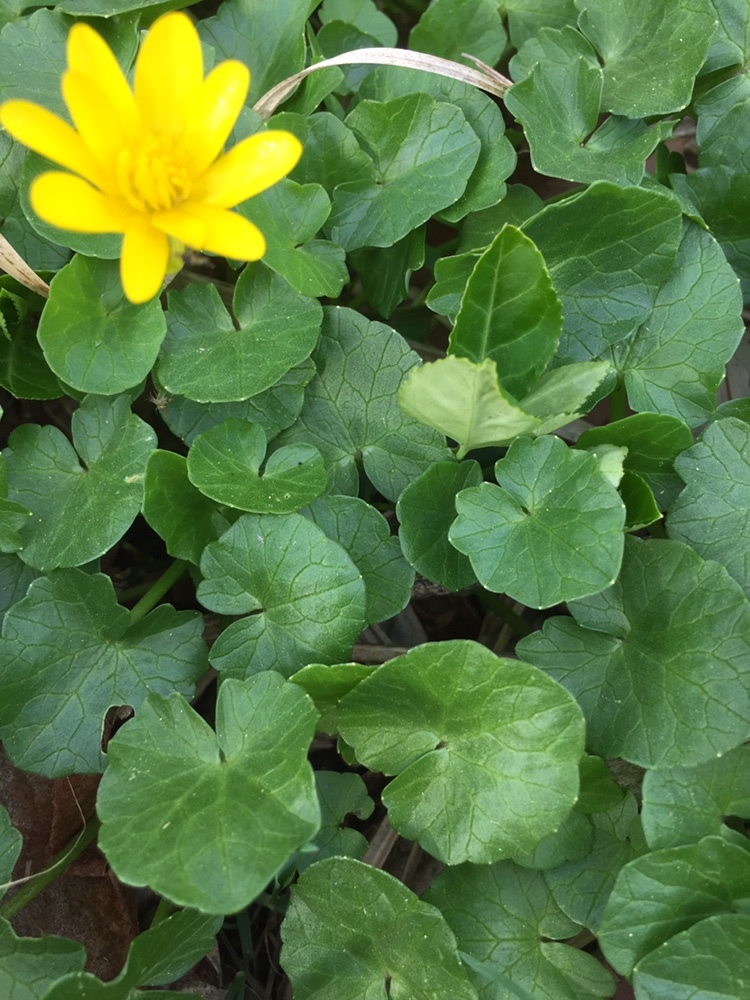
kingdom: Plantae
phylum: Tracheophyta
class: Magnoliopsida
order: Ranunculales
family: Ranunculaceae
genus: Ficaria
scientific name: Ficaria verna
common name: Lesser celandine
